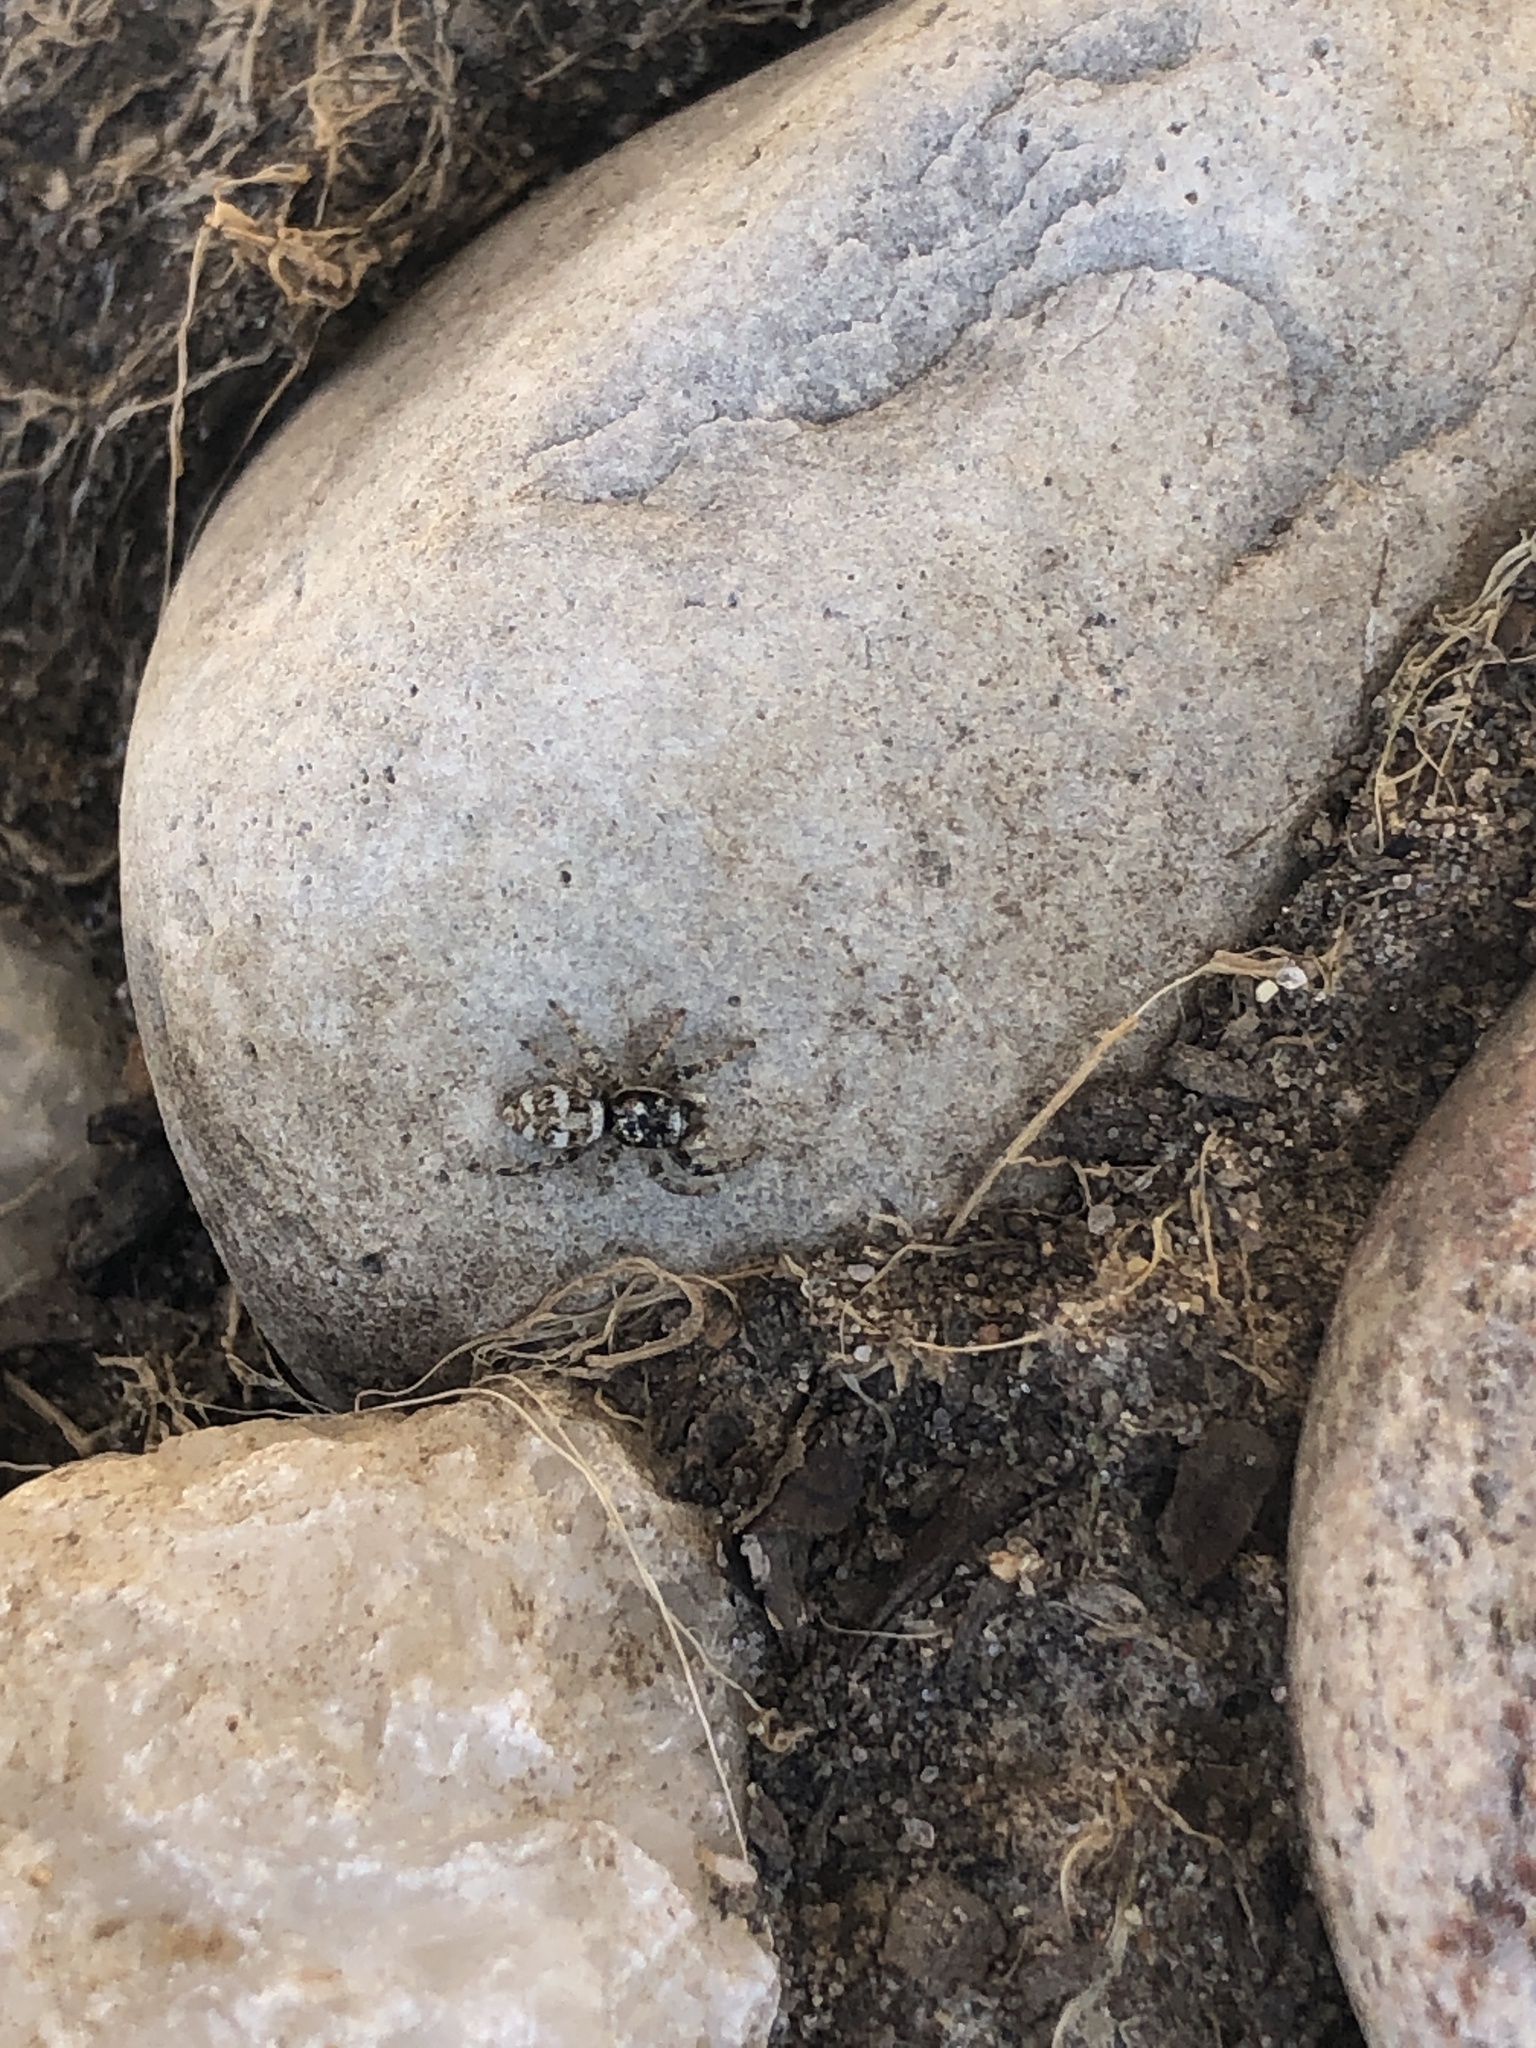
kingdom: Animalia
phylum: Arthropoda
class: Arachnida
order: Araneae
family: Salticidae
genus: Salticus
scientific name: Salticus scenicus
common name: Zebra jumper
